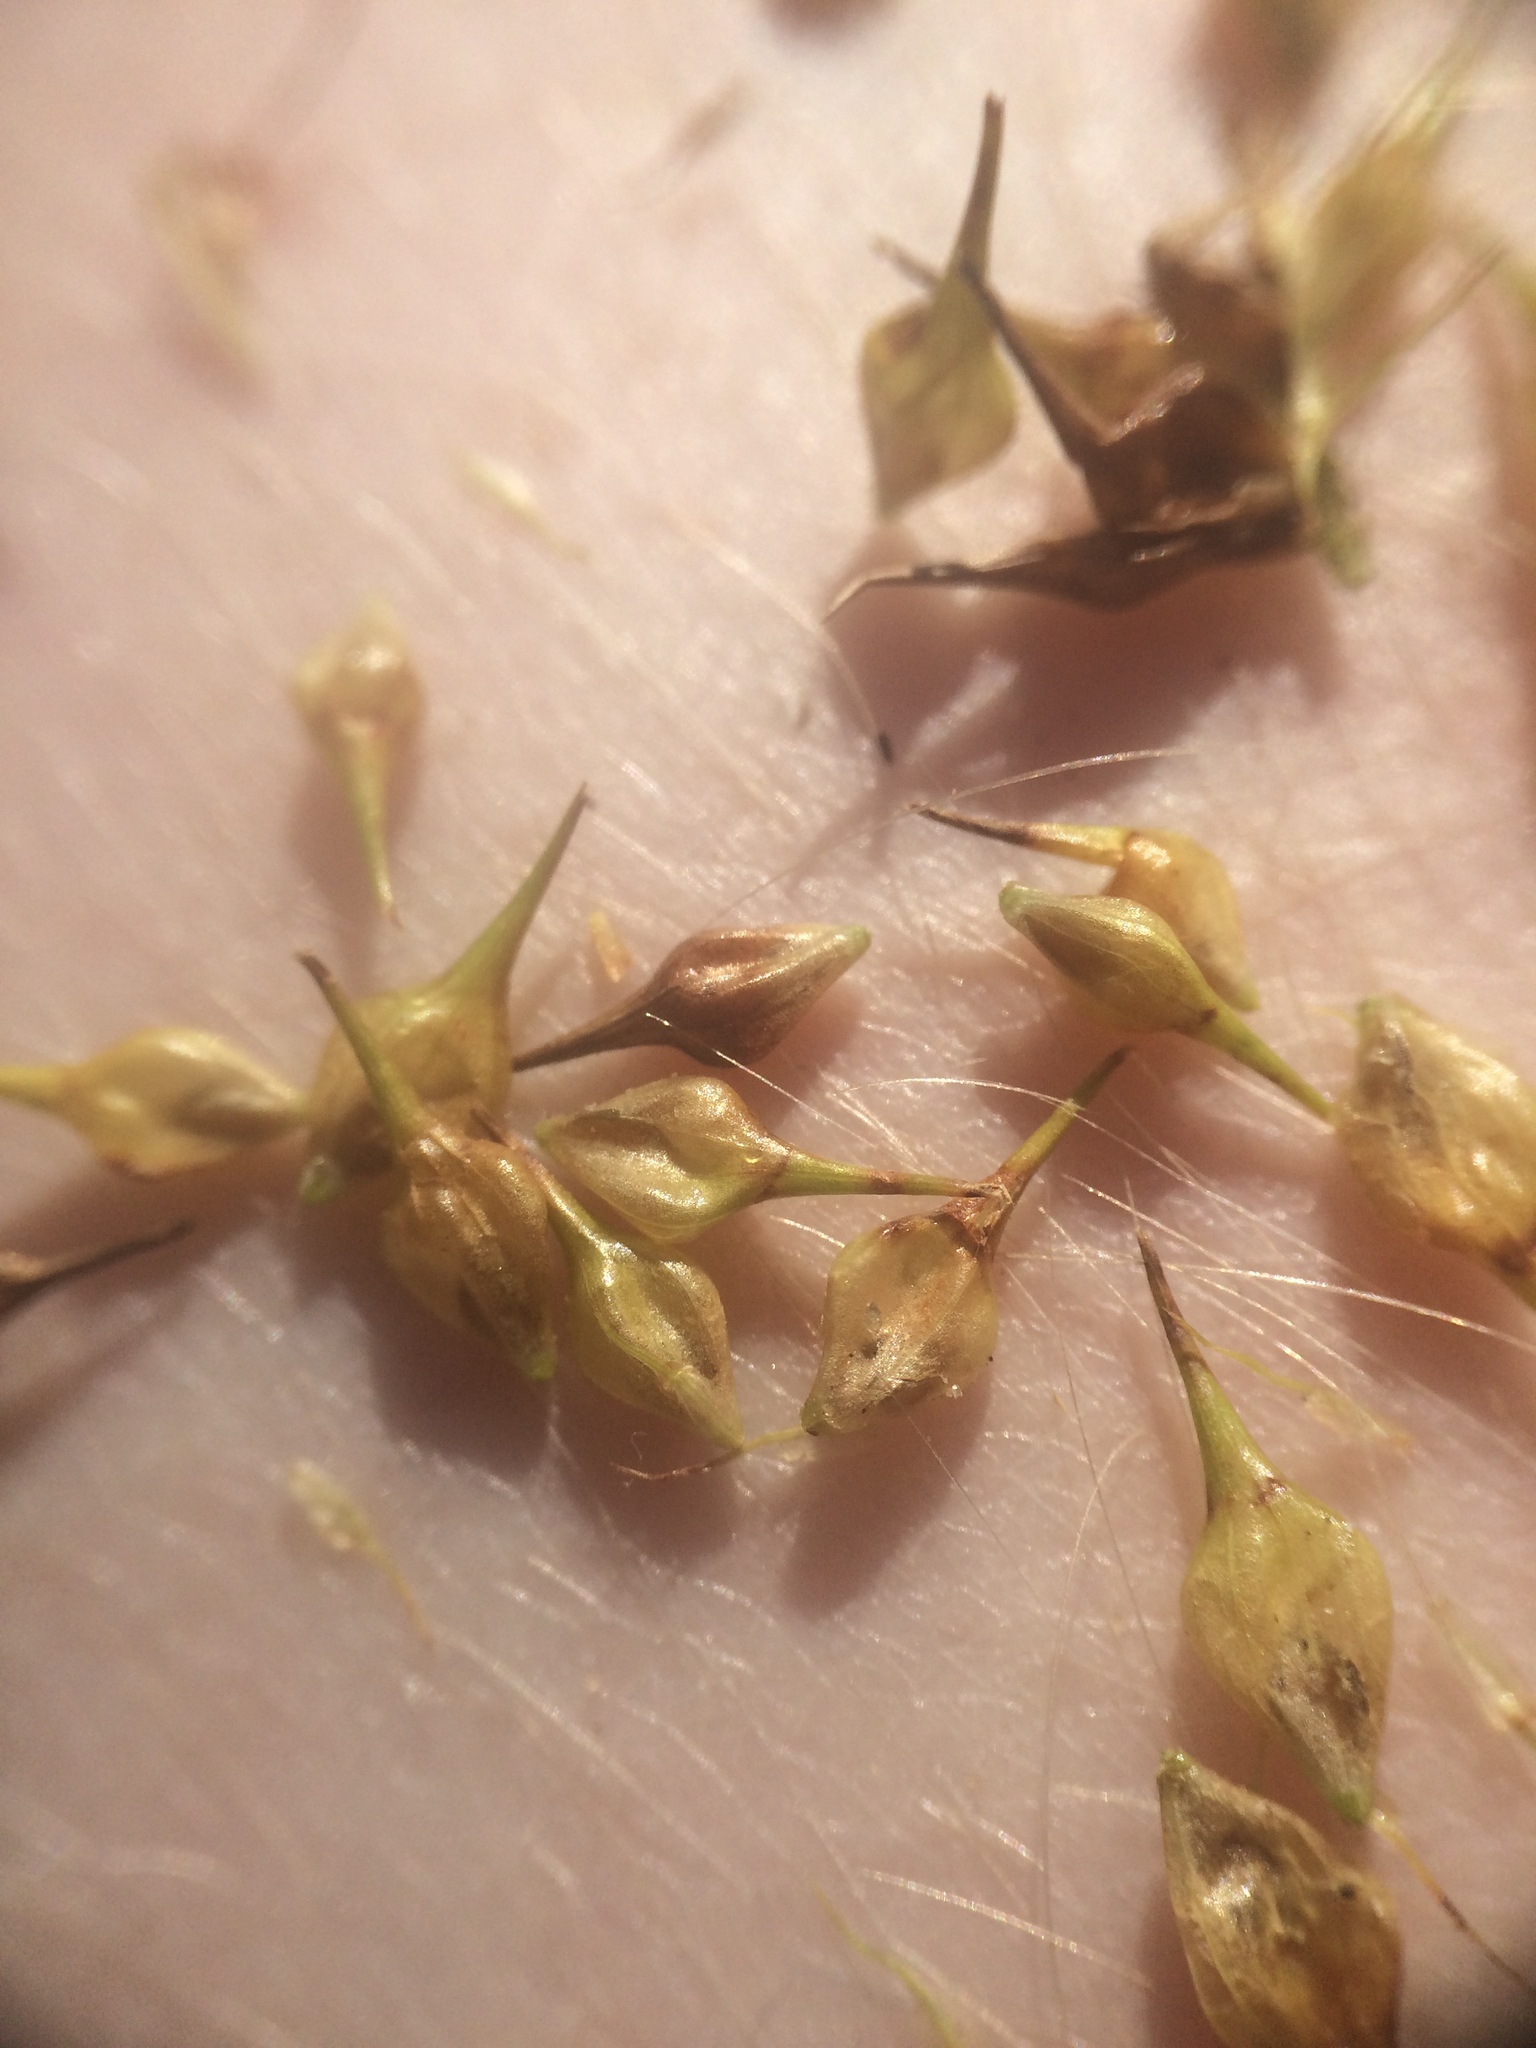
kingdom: Plantae
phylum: Tracheophyta
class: Liliopsida
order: Poales
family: Cyperaceae
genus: Carex
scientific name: Carex lurida
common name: Sallow sedge
